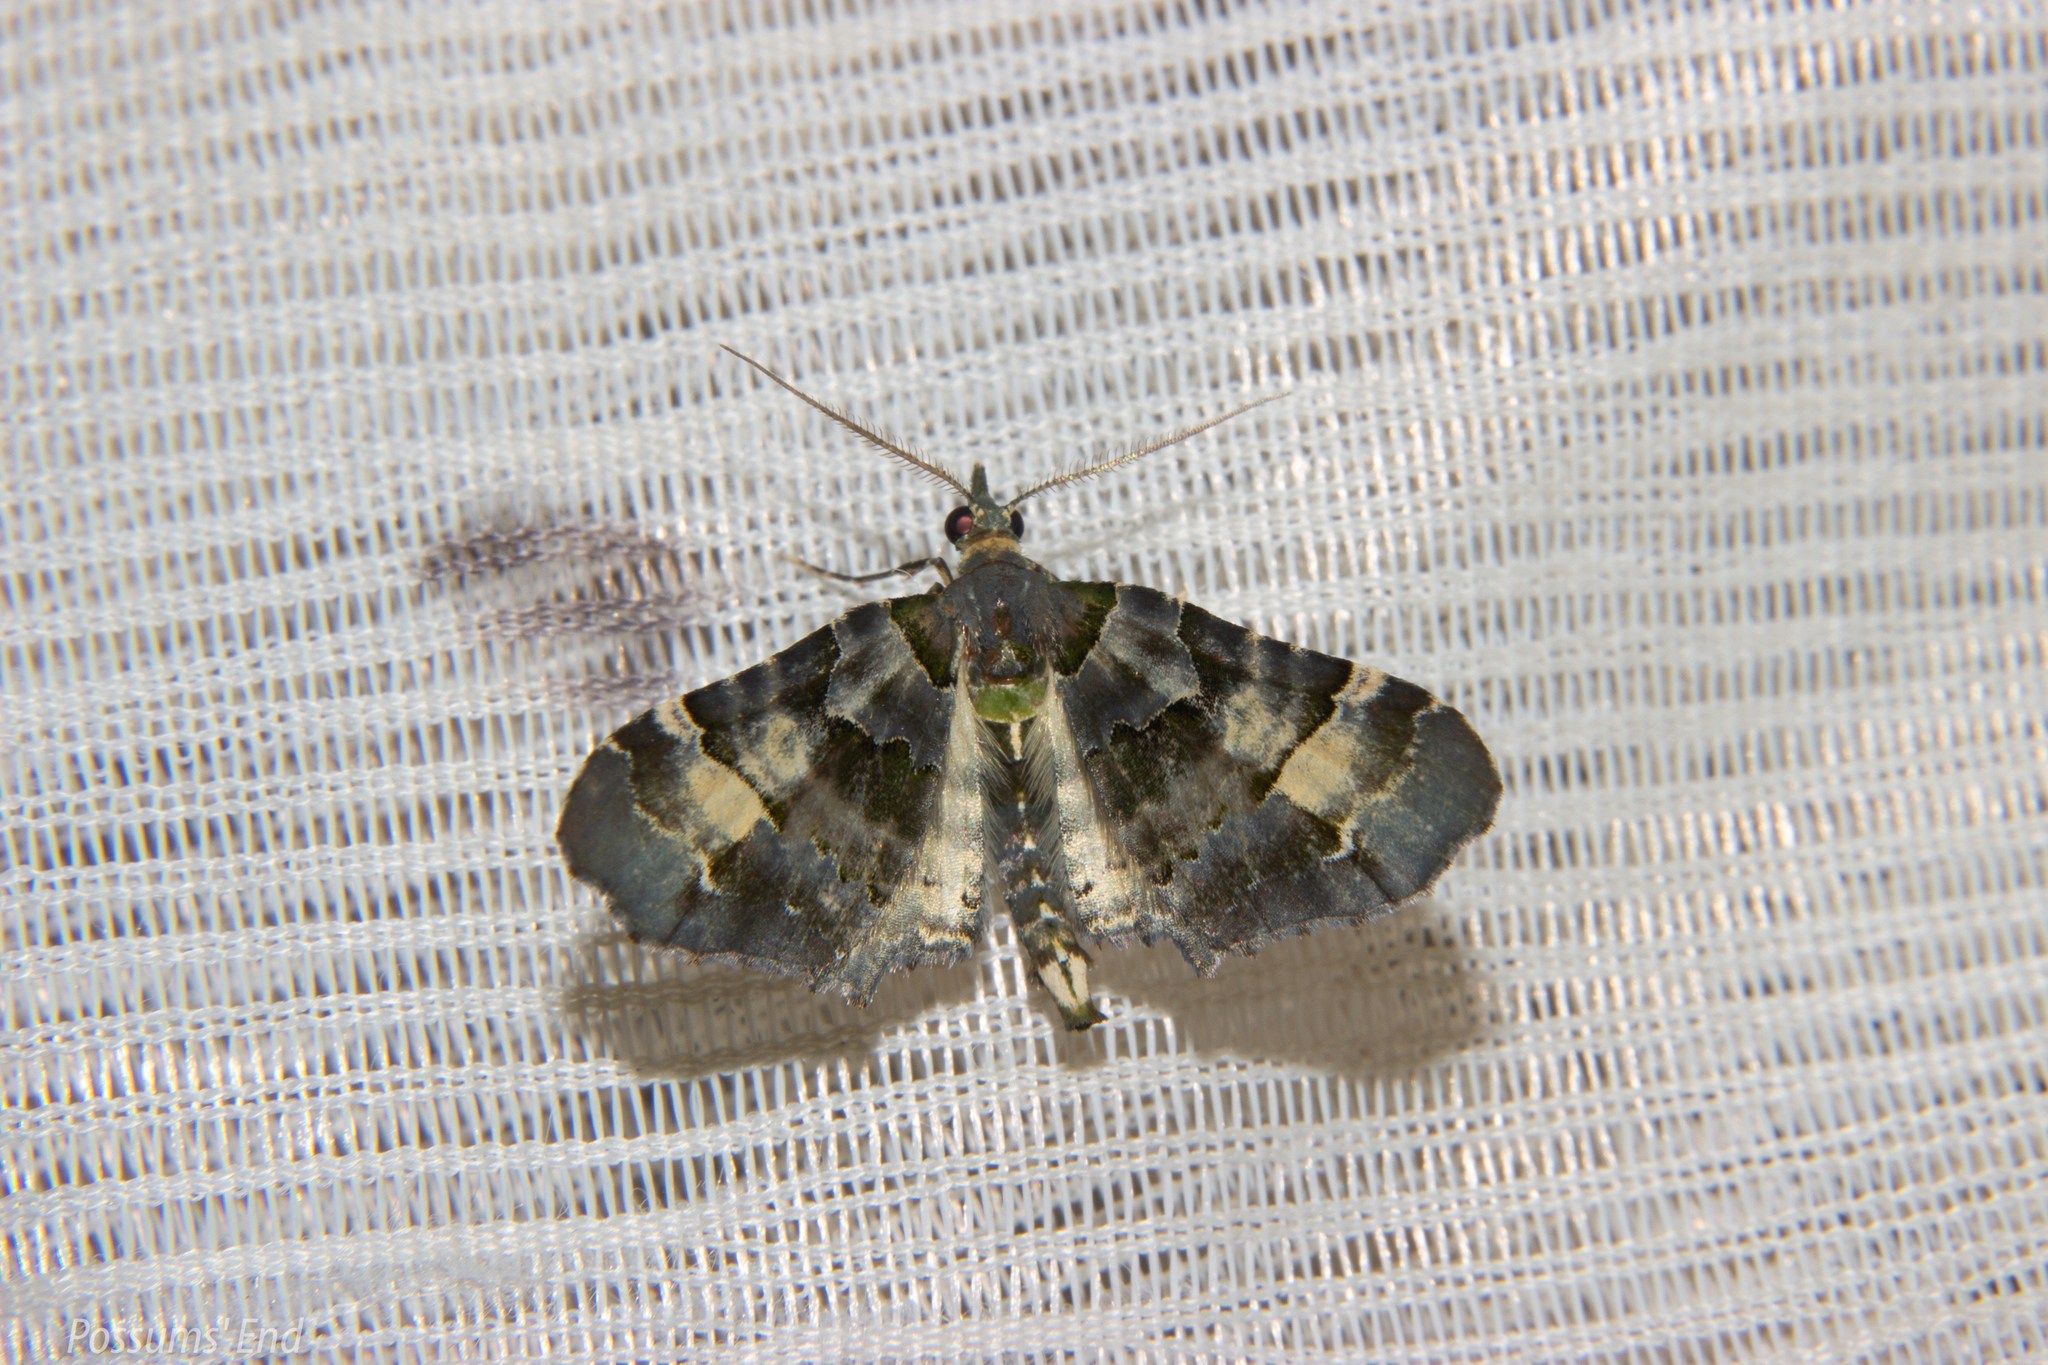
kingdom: Animalia
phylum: Arthropoda
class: Insecta
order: Lepidoptera
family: Geometridae
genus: Elvia
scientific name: Elvia glaucata
